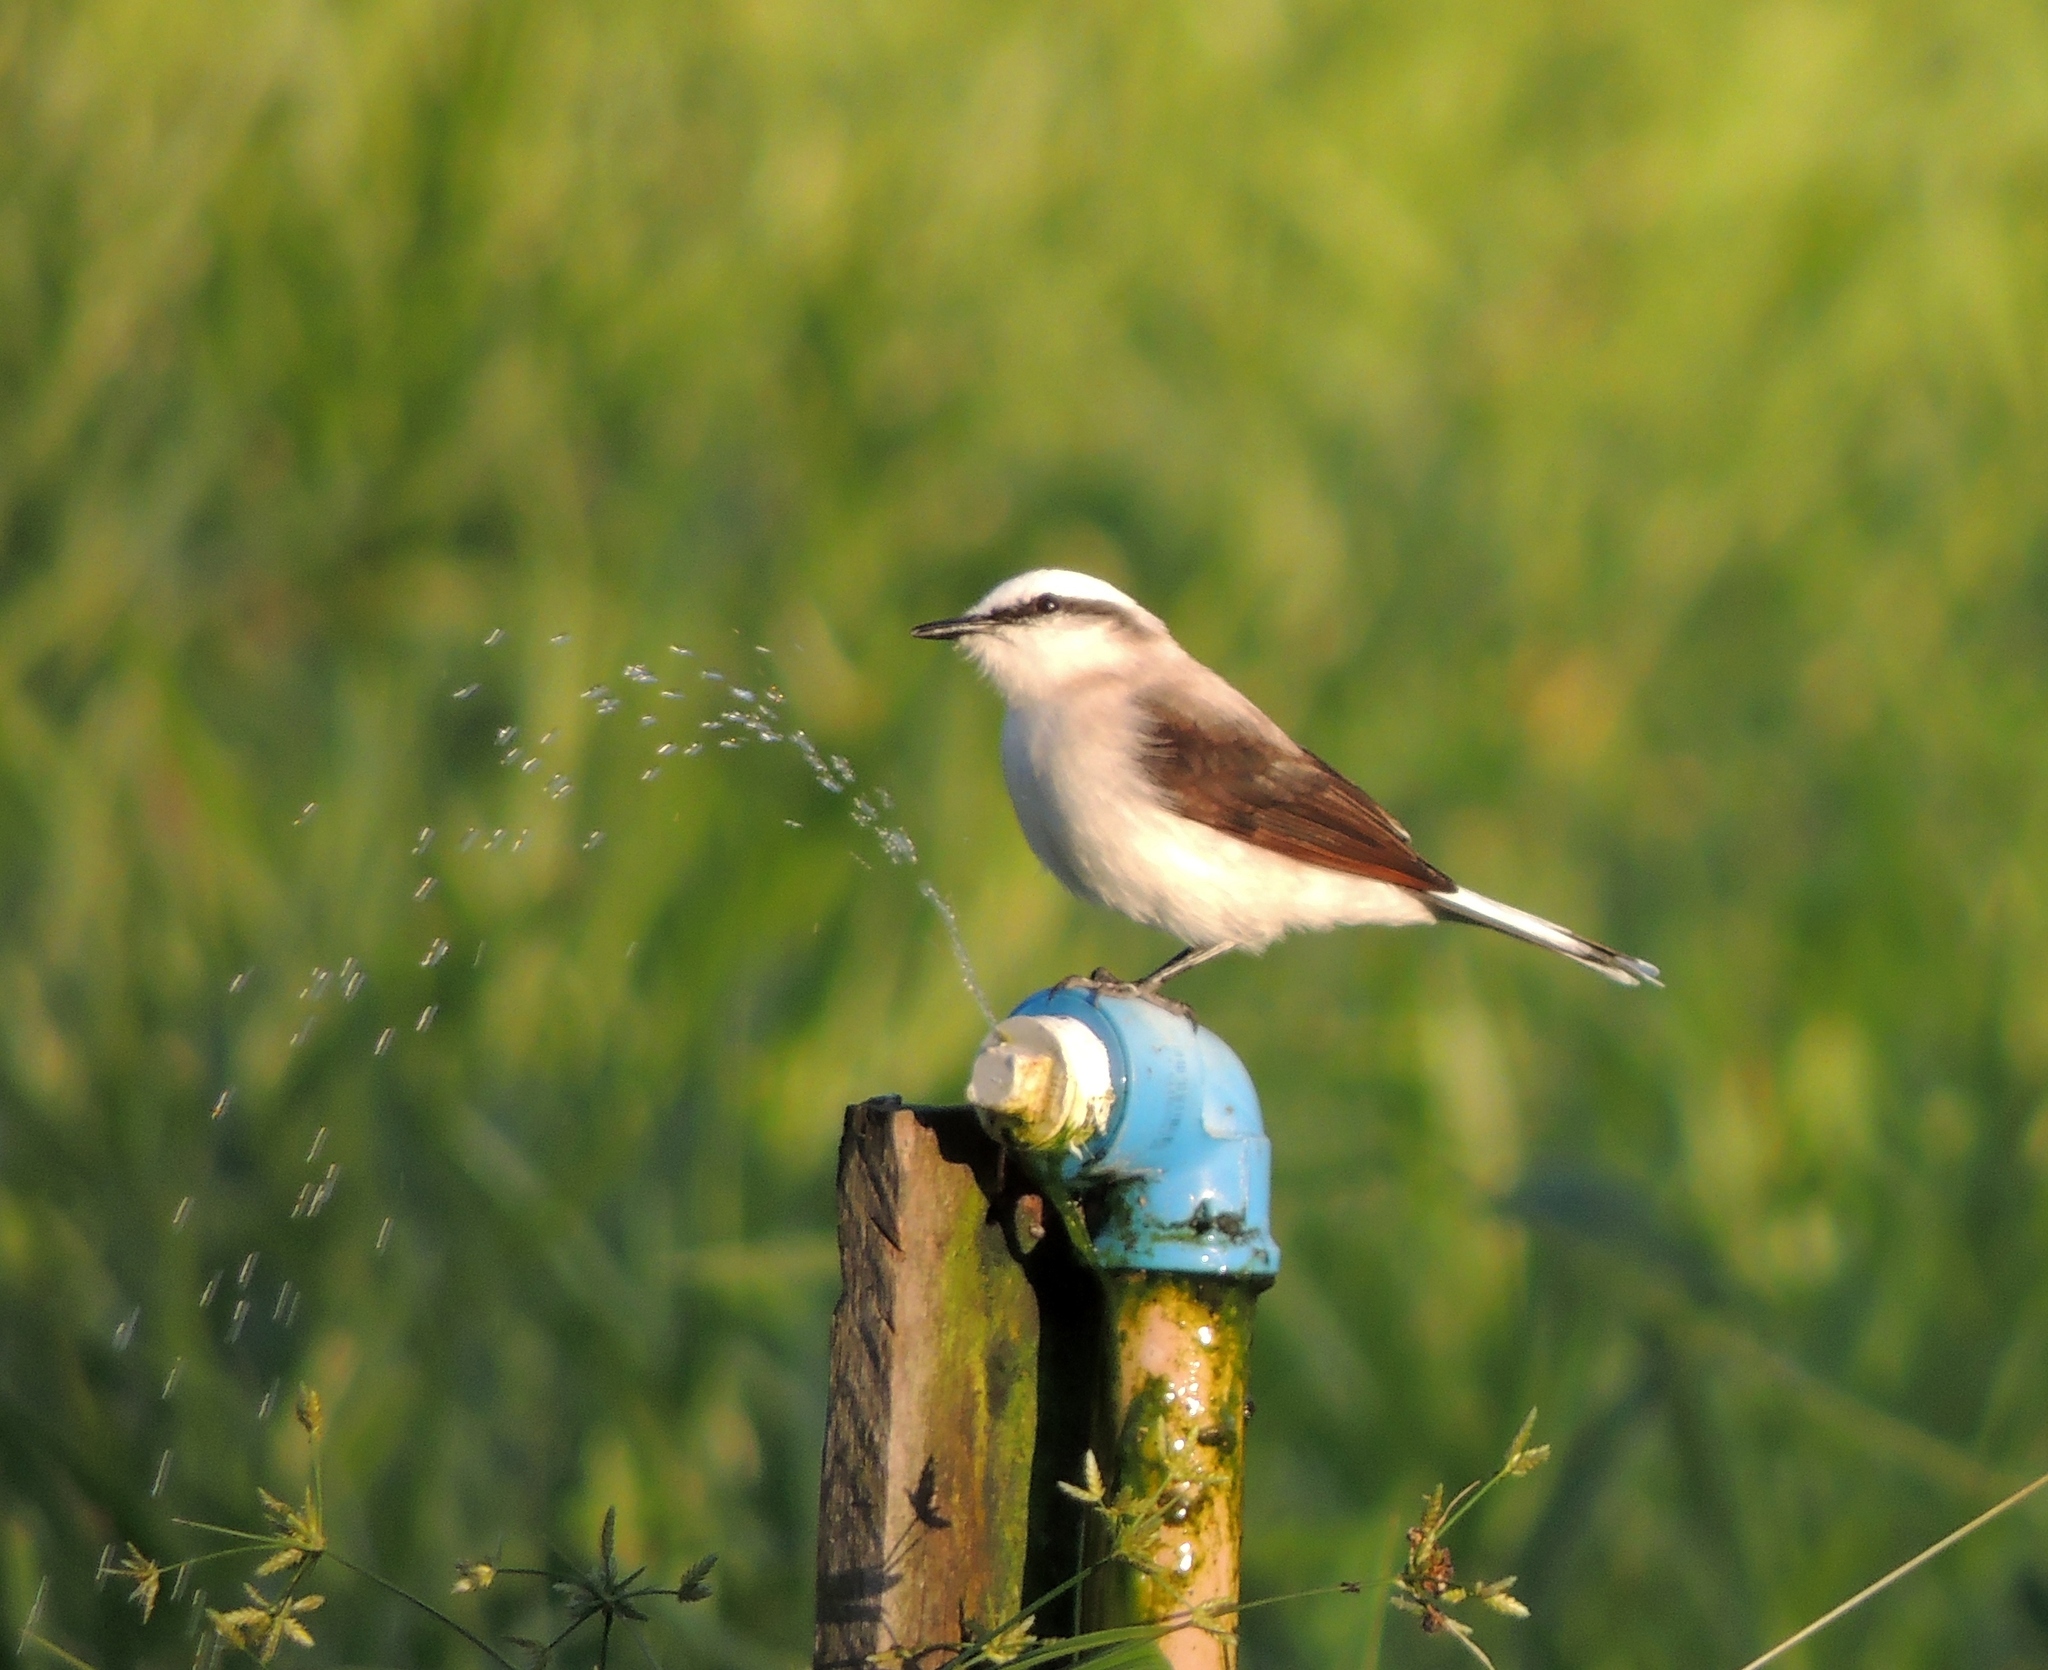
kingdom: Animalia
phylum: Chordata
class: Aves
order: Passeriformes
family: Tyrannidae
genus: Fluvicola
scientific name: Fluvicola nengeta
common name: Masked water tyrant
